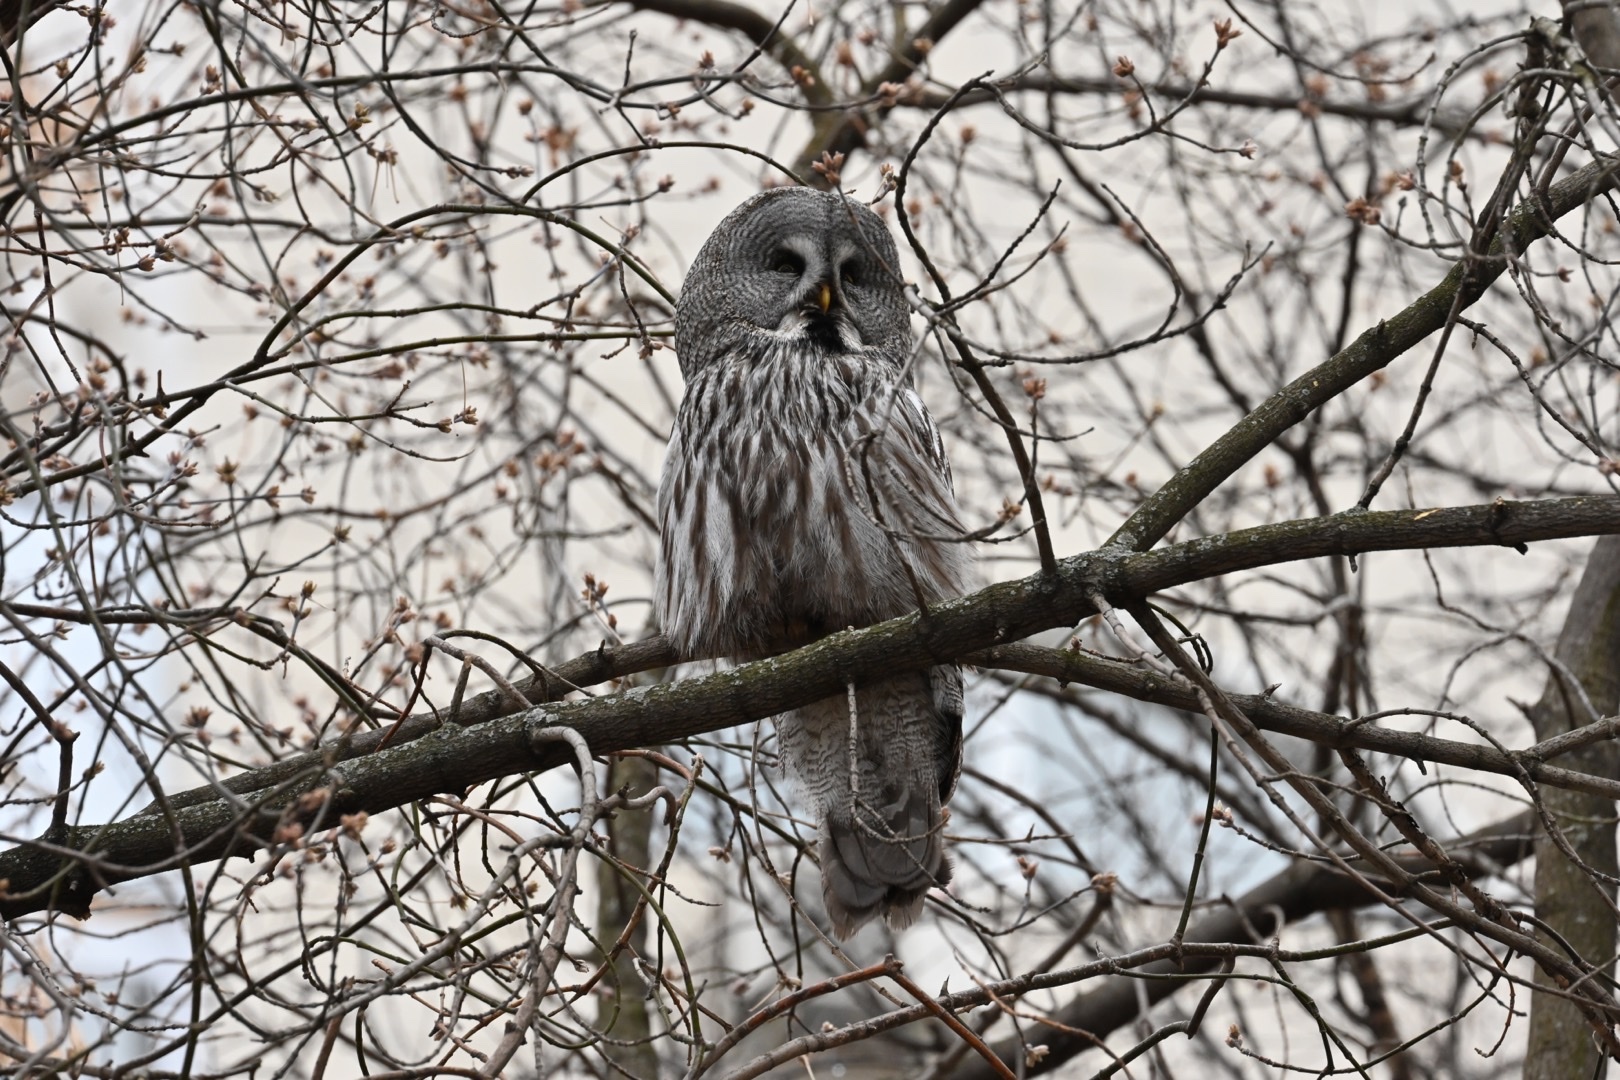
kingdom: Animalia
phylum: Chordata
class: Aves
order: Strigiformes
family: Strigidae
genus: Strix
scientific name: Strix nebulosa
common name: Great grey owl
